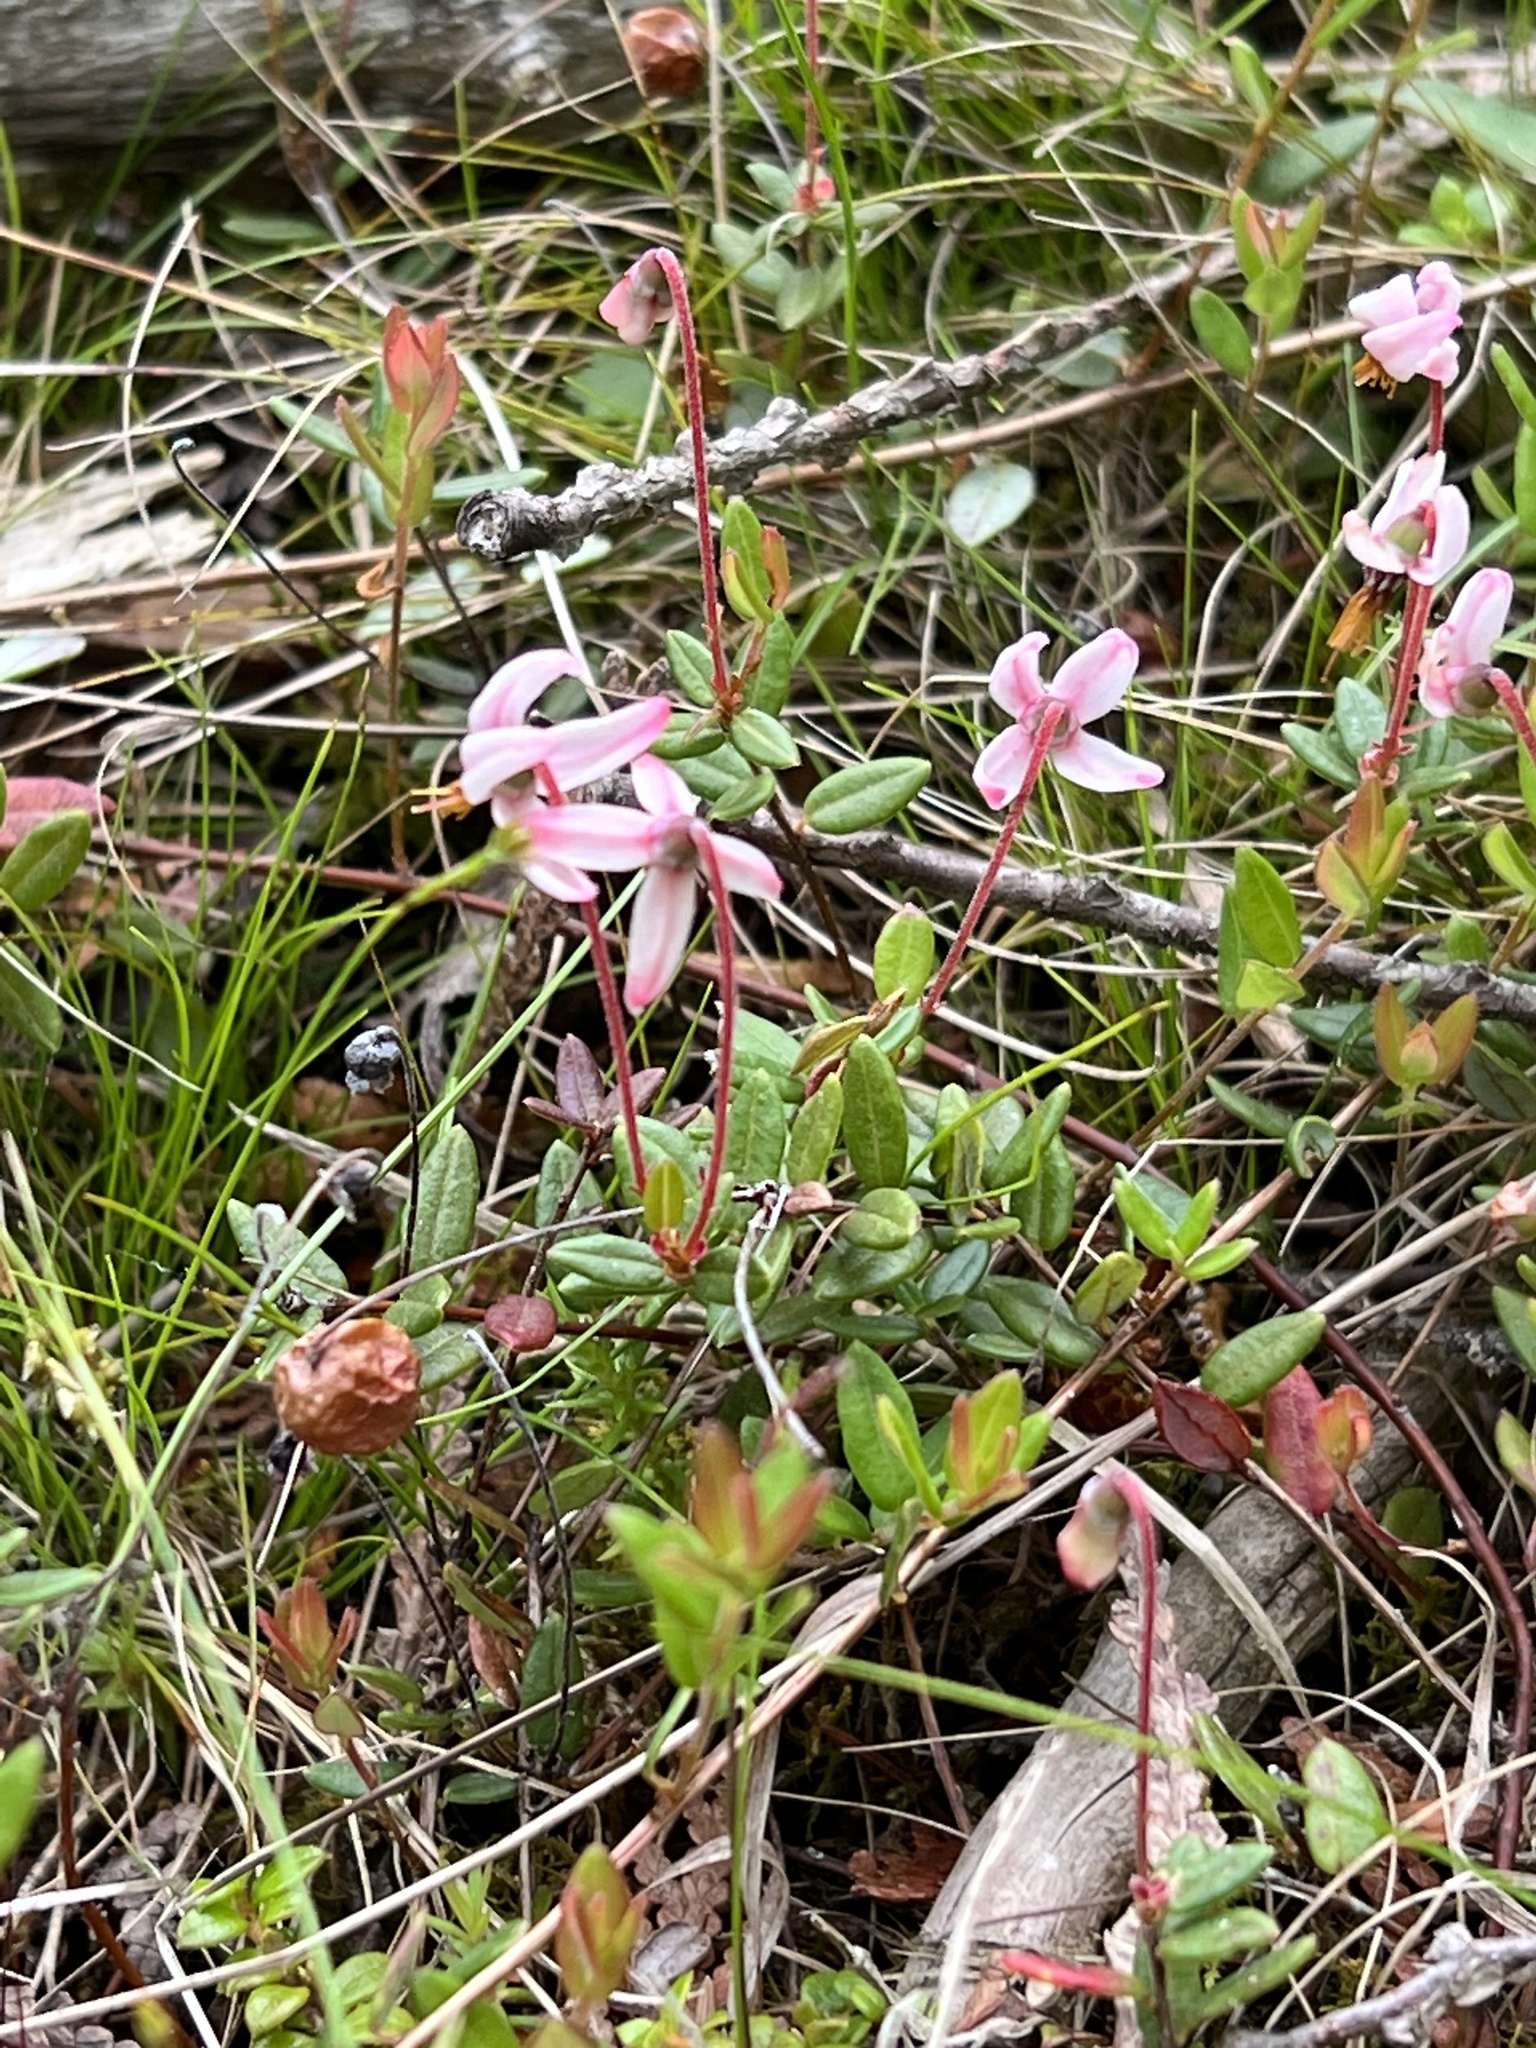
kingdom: Plantae
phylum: Tracheophyta
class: Magnoliopsida
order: Ericales
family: Ericaceae
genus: Vaccinium
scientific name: Vaccinium oxycoccos
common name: Cranberry
